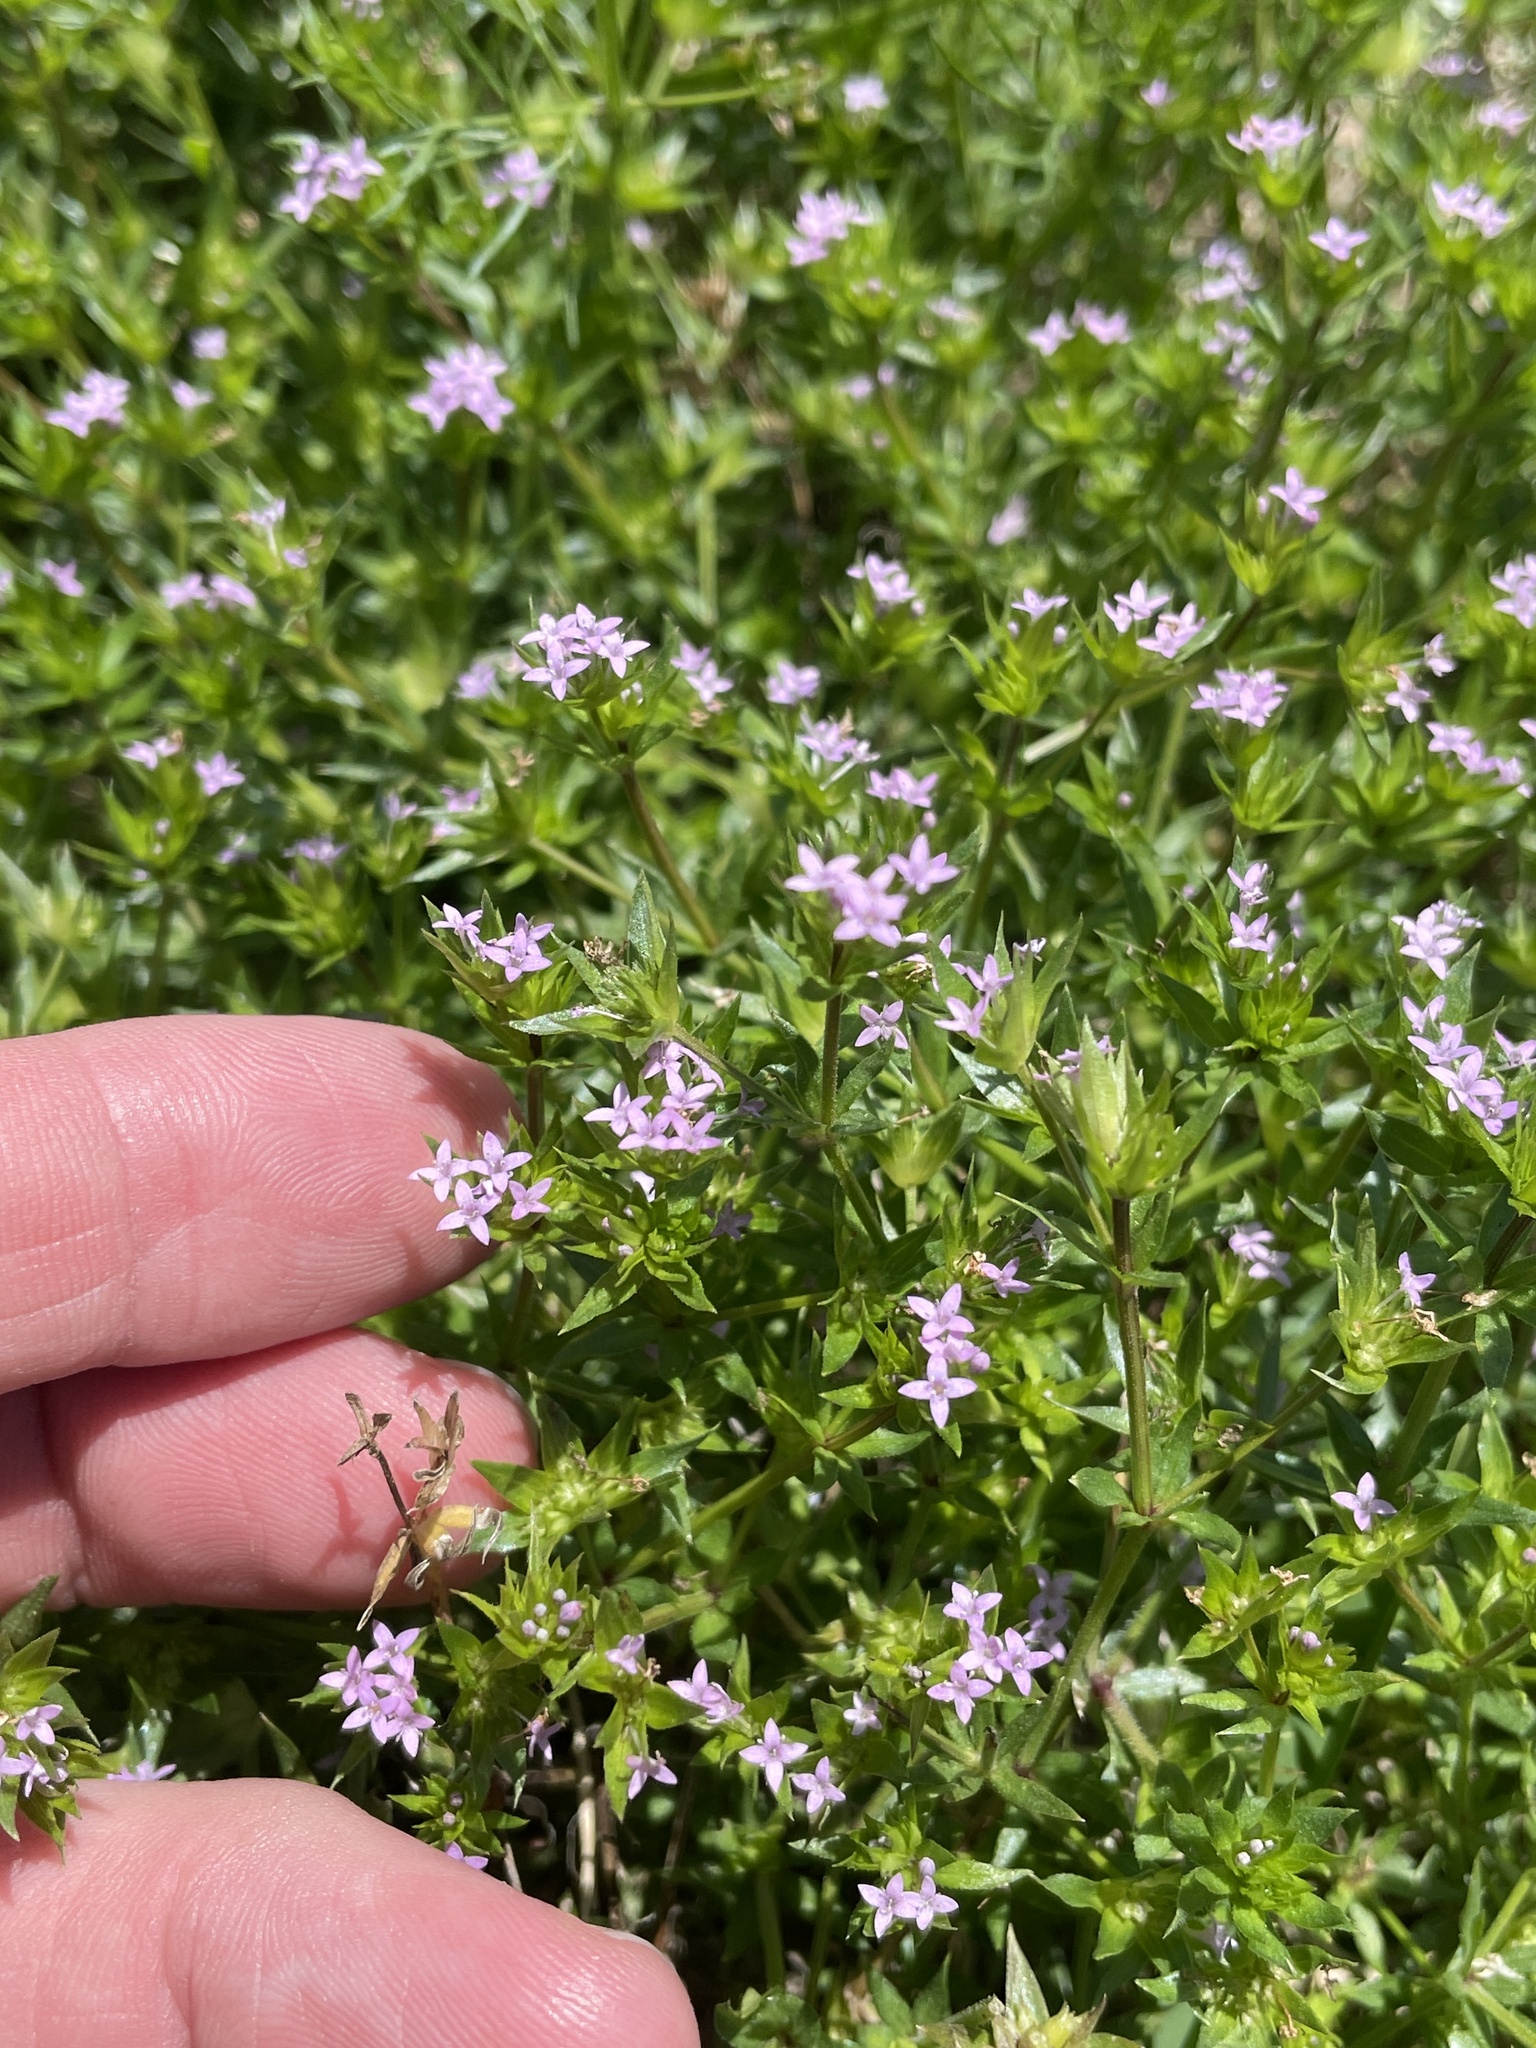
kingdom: Plantae
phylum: Tracheophyta
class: Magnoliopsida
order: Gentianales
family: Rubiaceae
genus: Sherardia
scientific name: Sherardia arvensis
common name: Field madder
